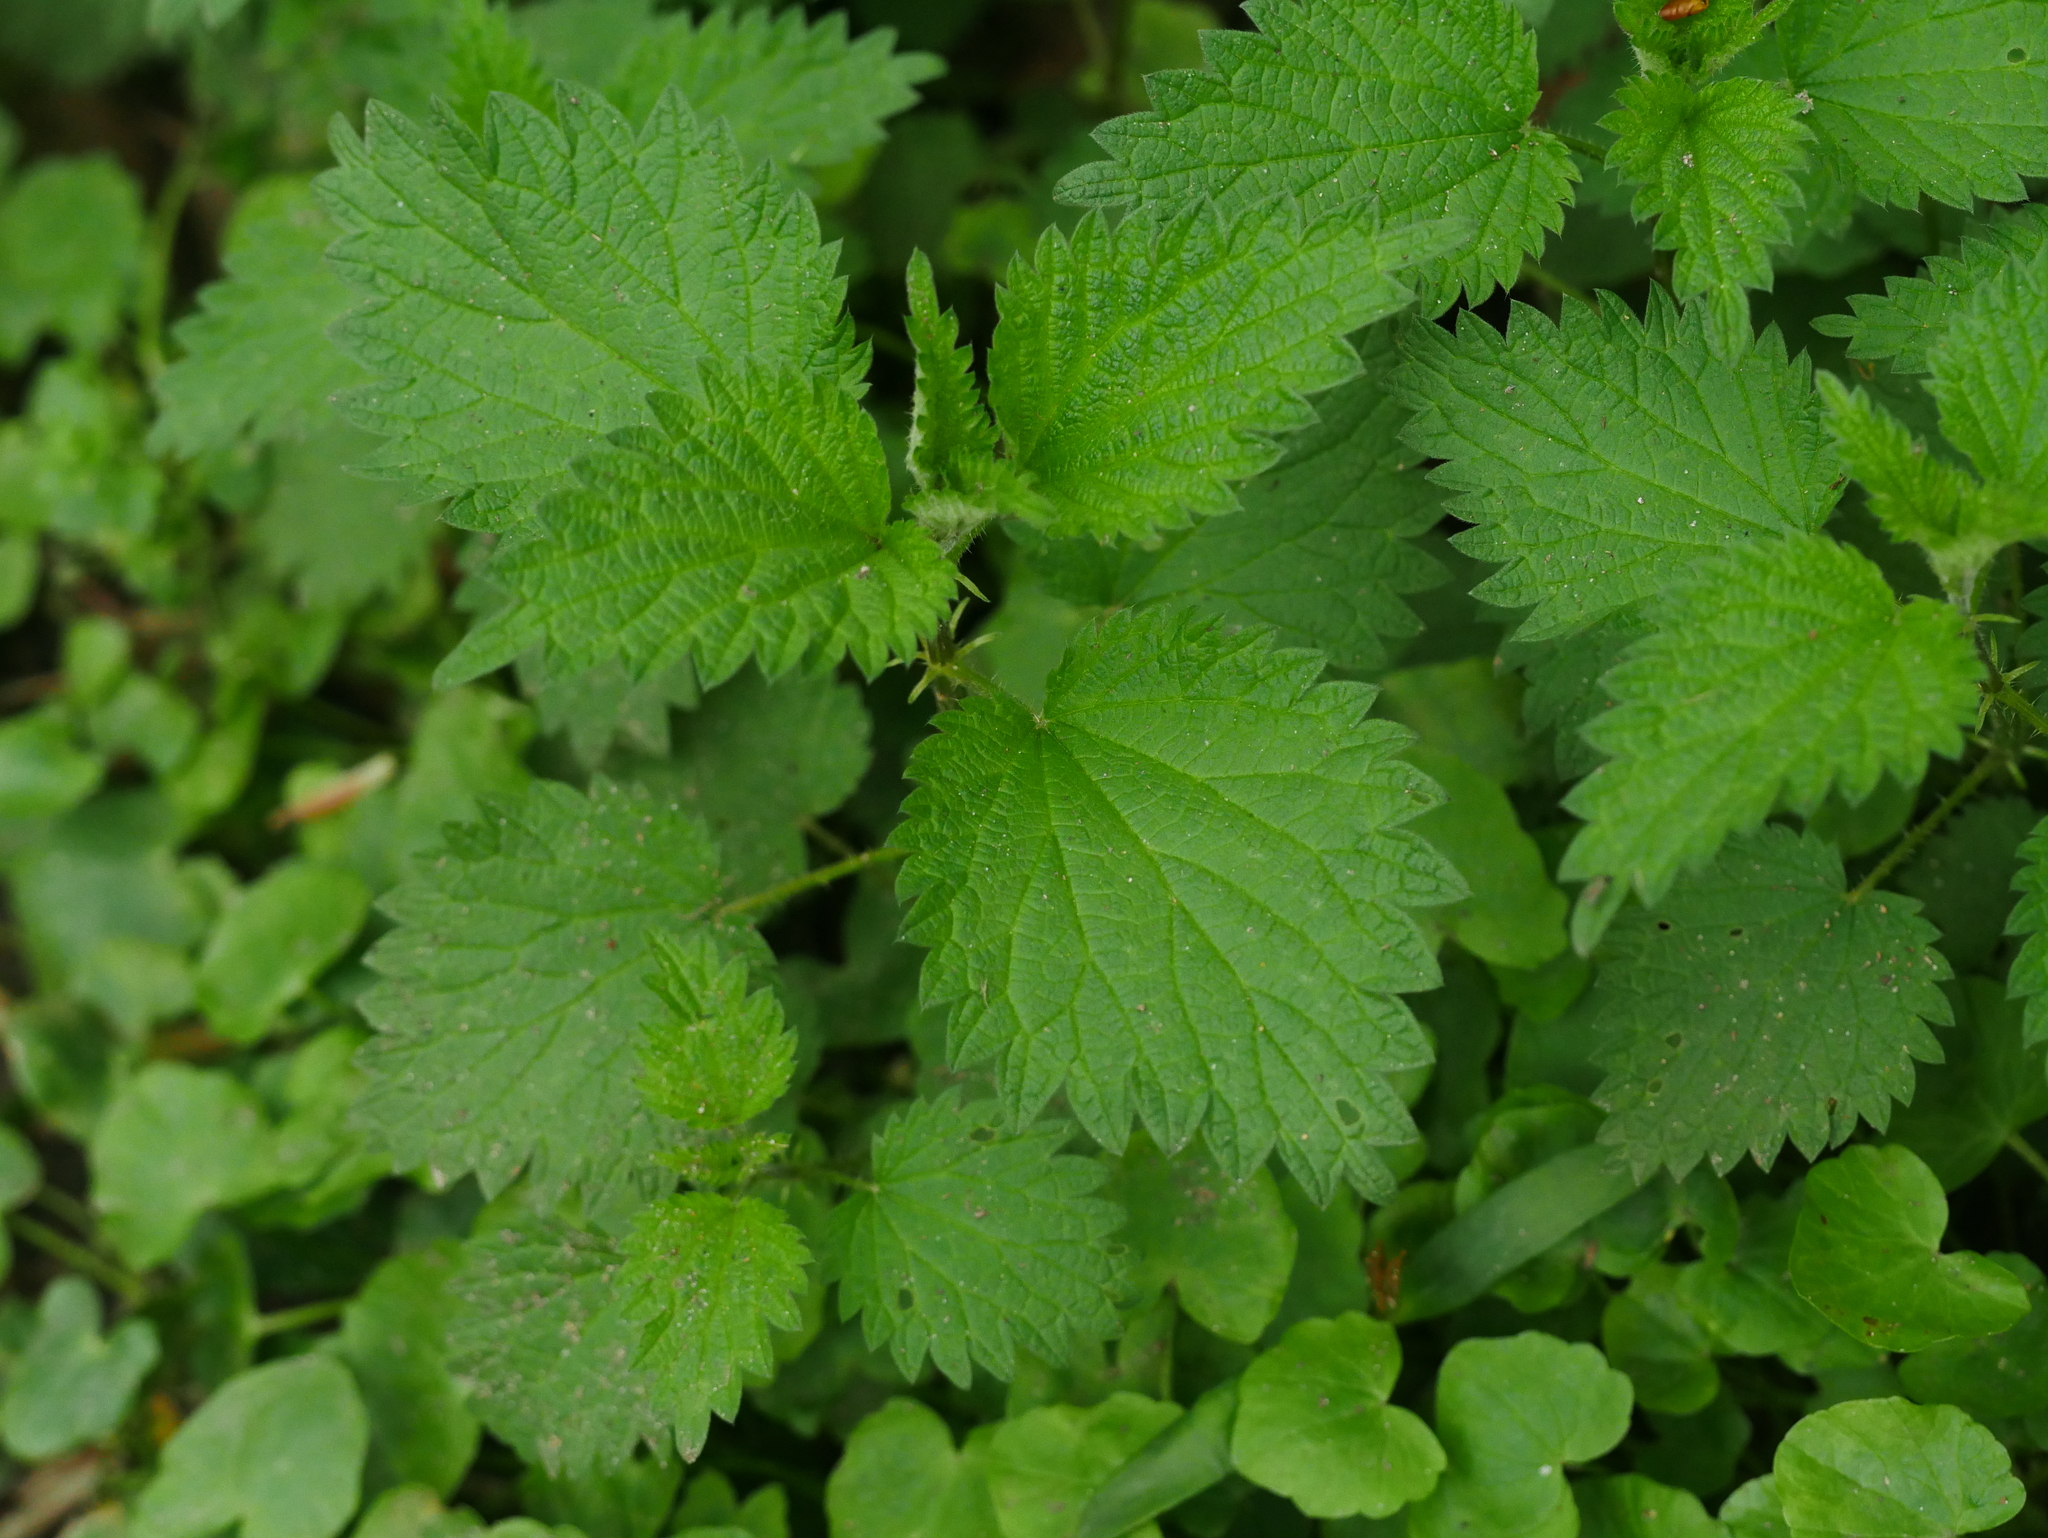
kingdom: Plantae
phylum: Tracheophyta
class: Magnoliopsida
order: Rosales
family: Urticaceae
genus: Urtica
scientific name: Urtica dioica
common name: Common nettle
